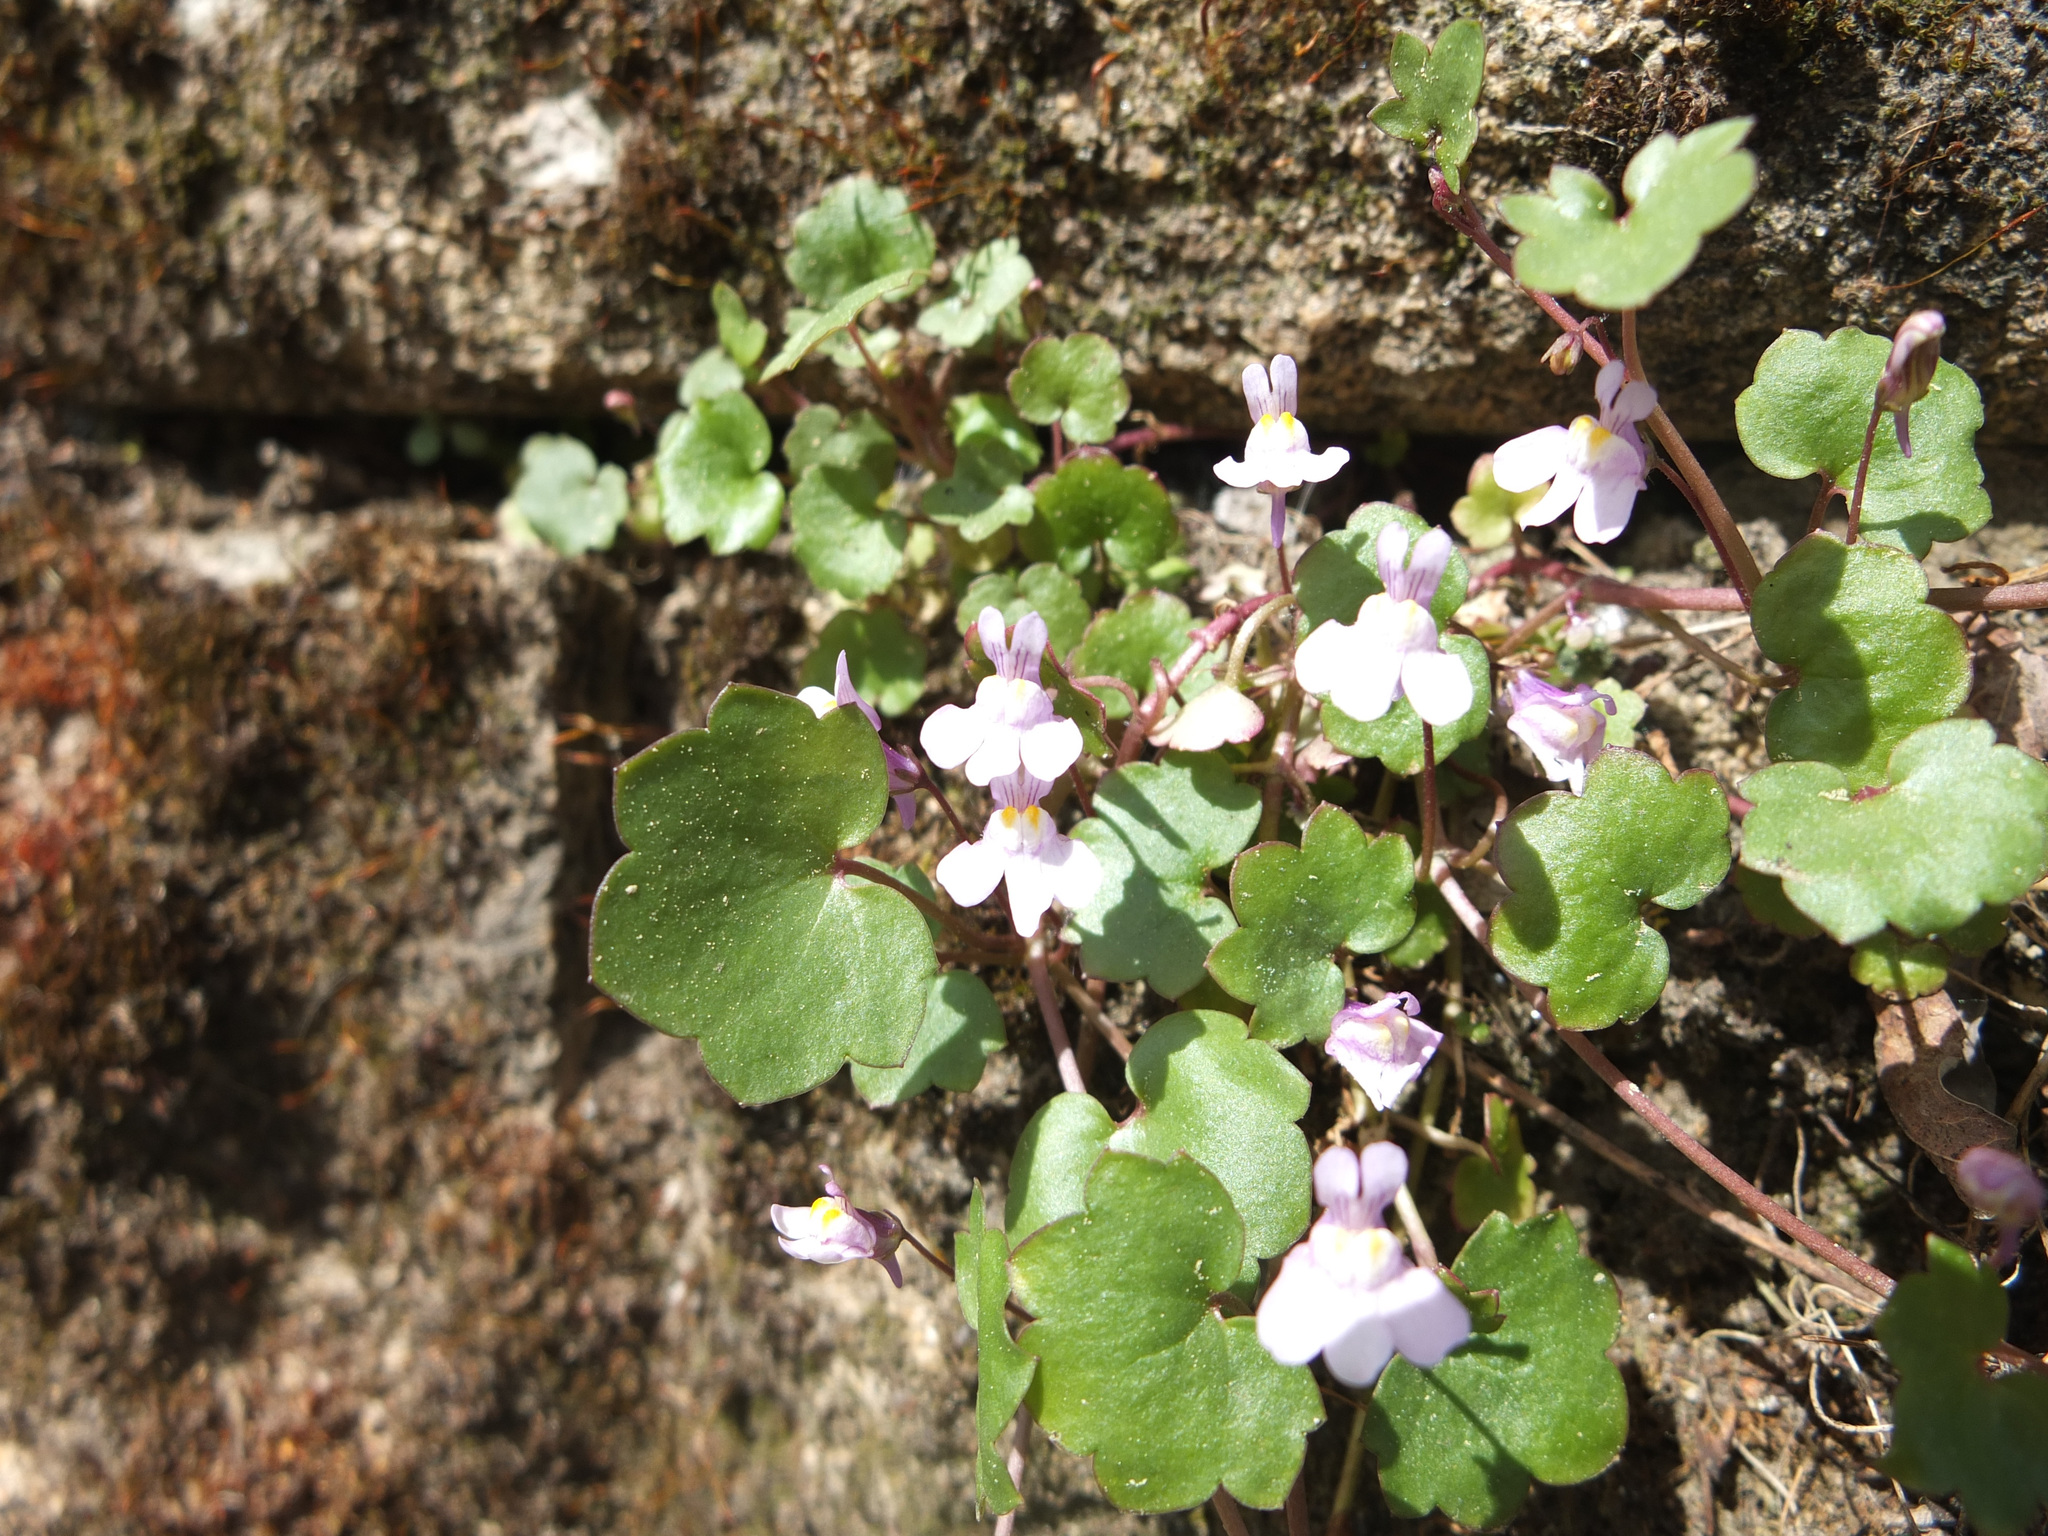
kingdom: Plantae
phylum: Tracheophyta
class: Magnoliopsida
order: Lamiales
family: Plantaginaceae
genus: Cymbalaria
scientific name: Cymbalaria muralis
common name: Ivy-leaved toadflax
